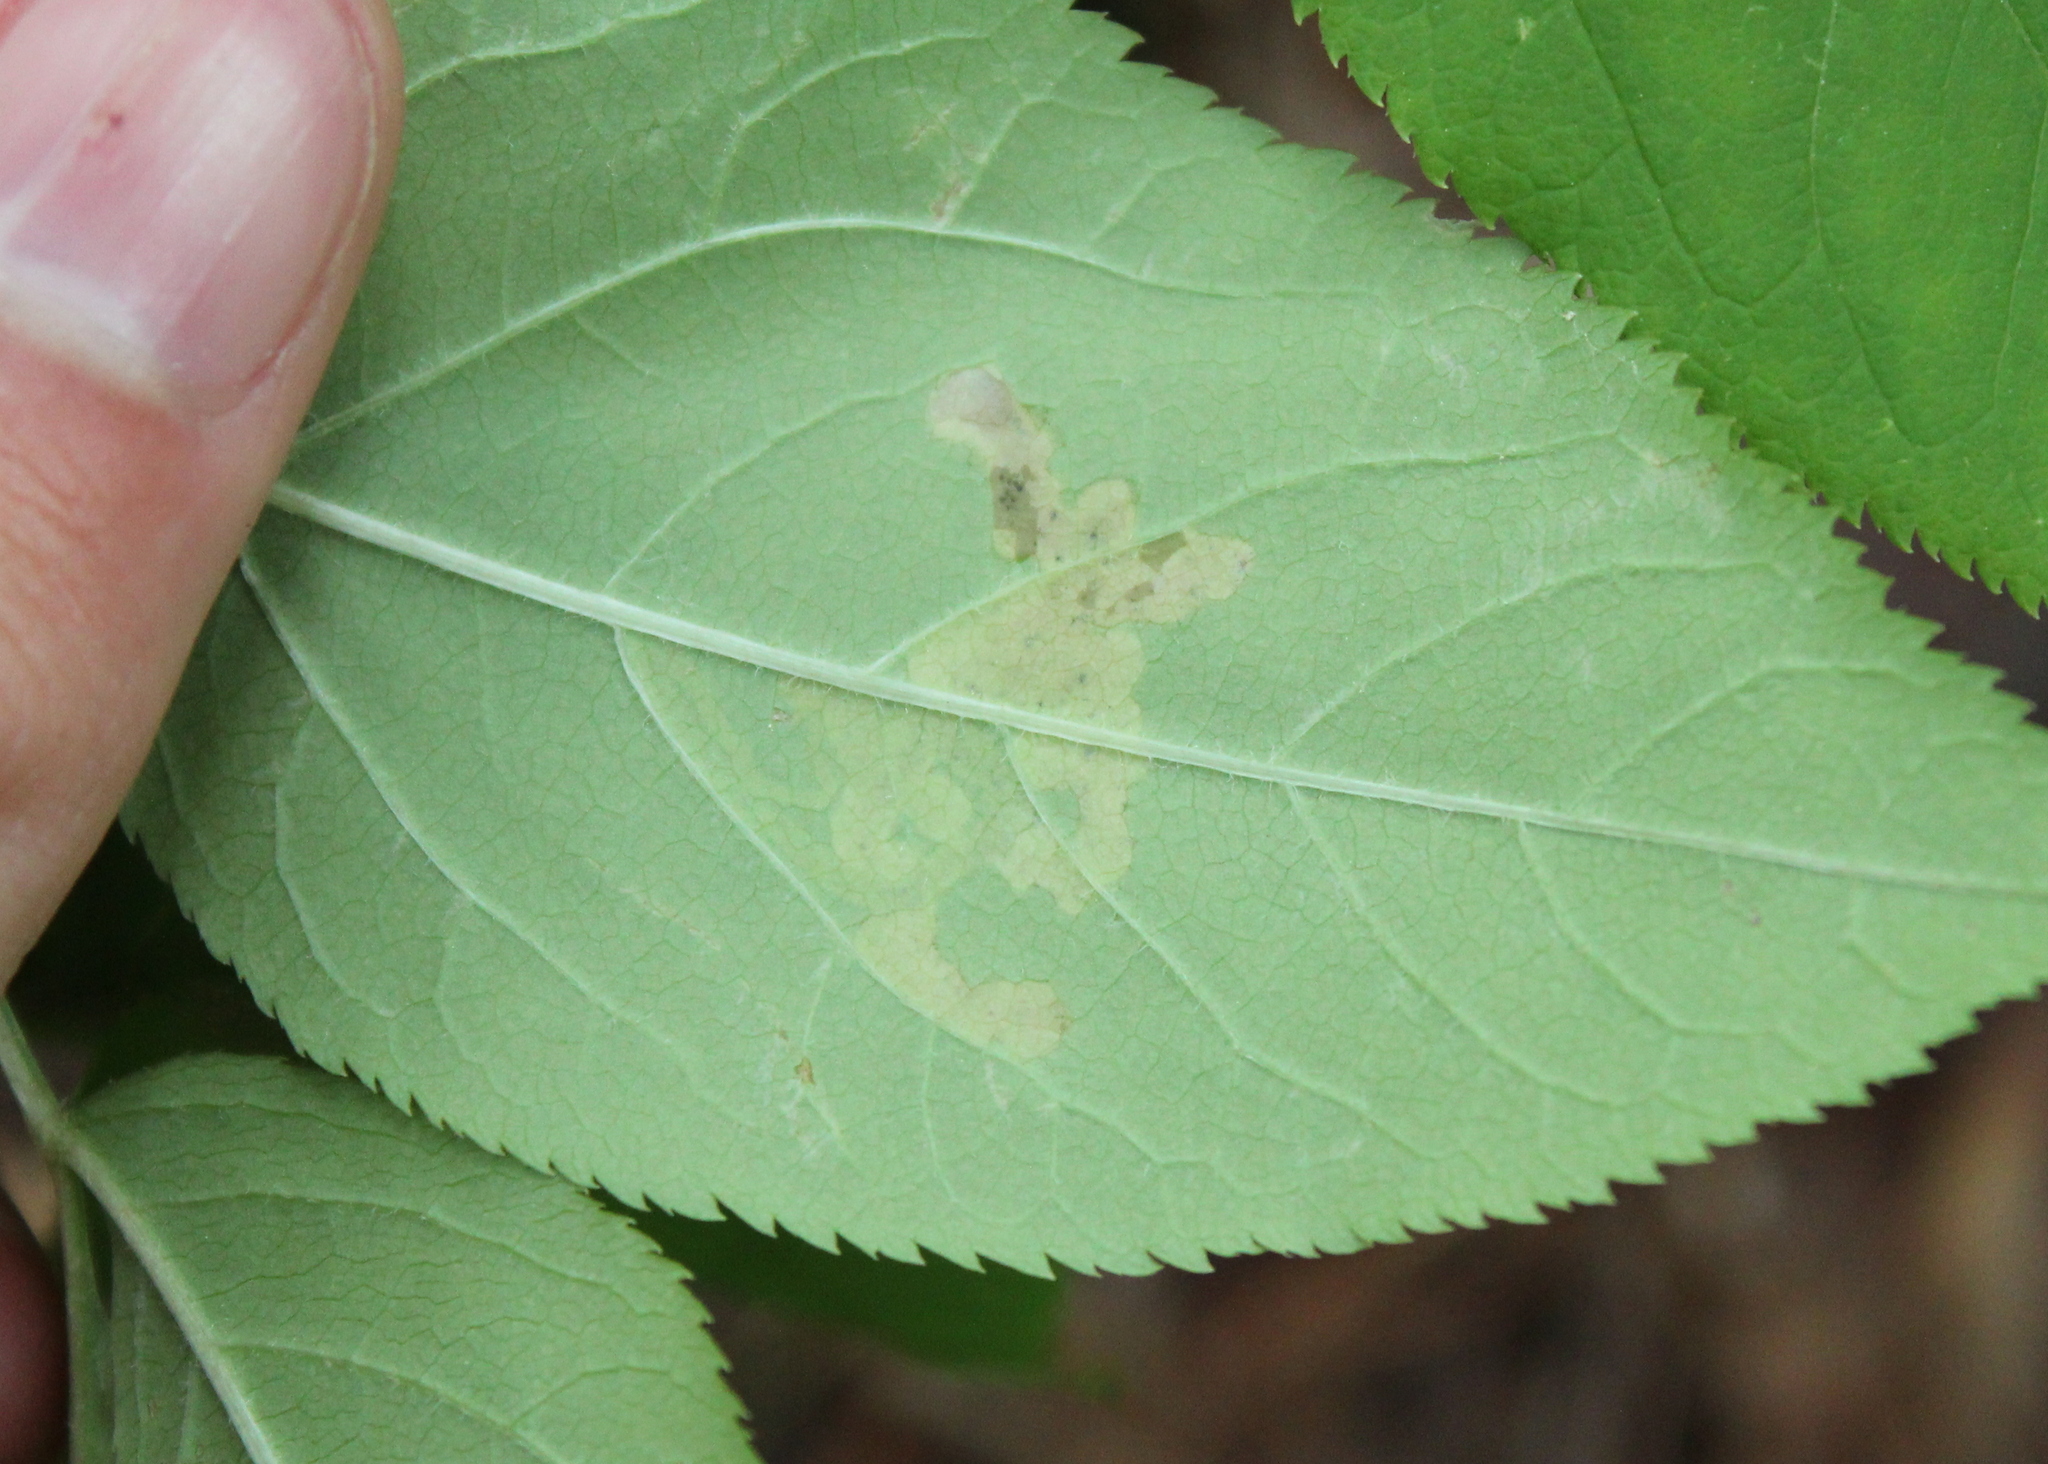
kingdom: Animalia
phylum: Arthropoda
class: Insecta
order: Diptera
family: Agromyzidae
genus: Phytomyza
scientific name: Phytomyza aralivora
